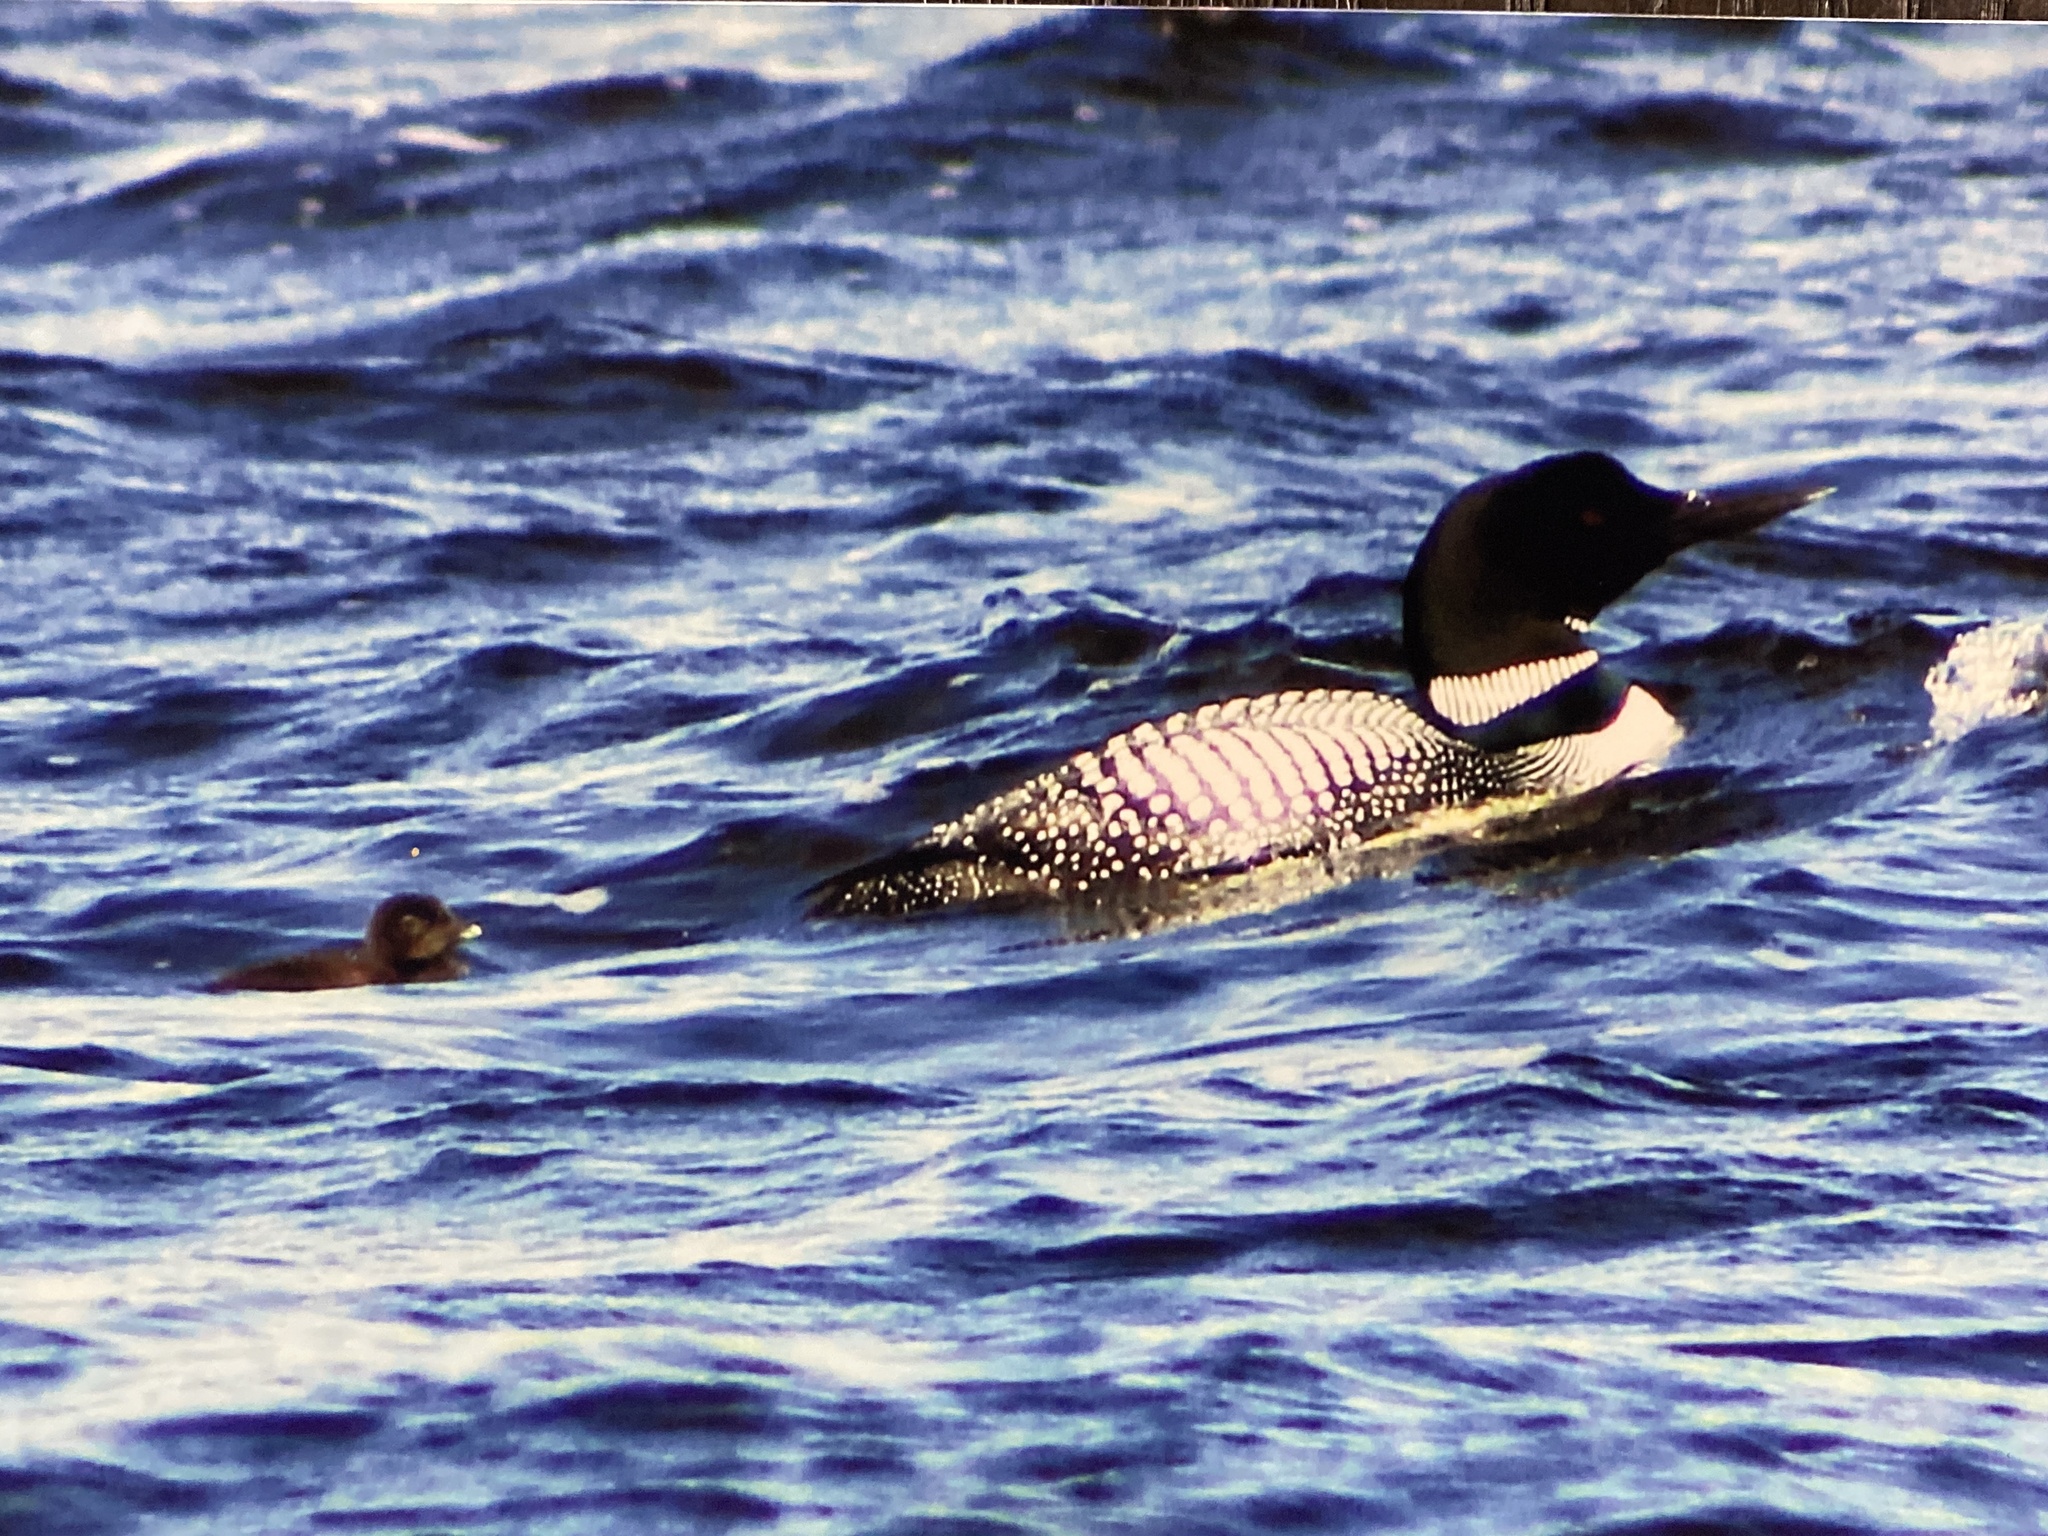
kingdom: Animalia
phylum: Chordata
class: Aves
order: Gaviiformes
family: Gaviidae
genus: Gavia
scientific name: Gavia immer
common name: Common loon
